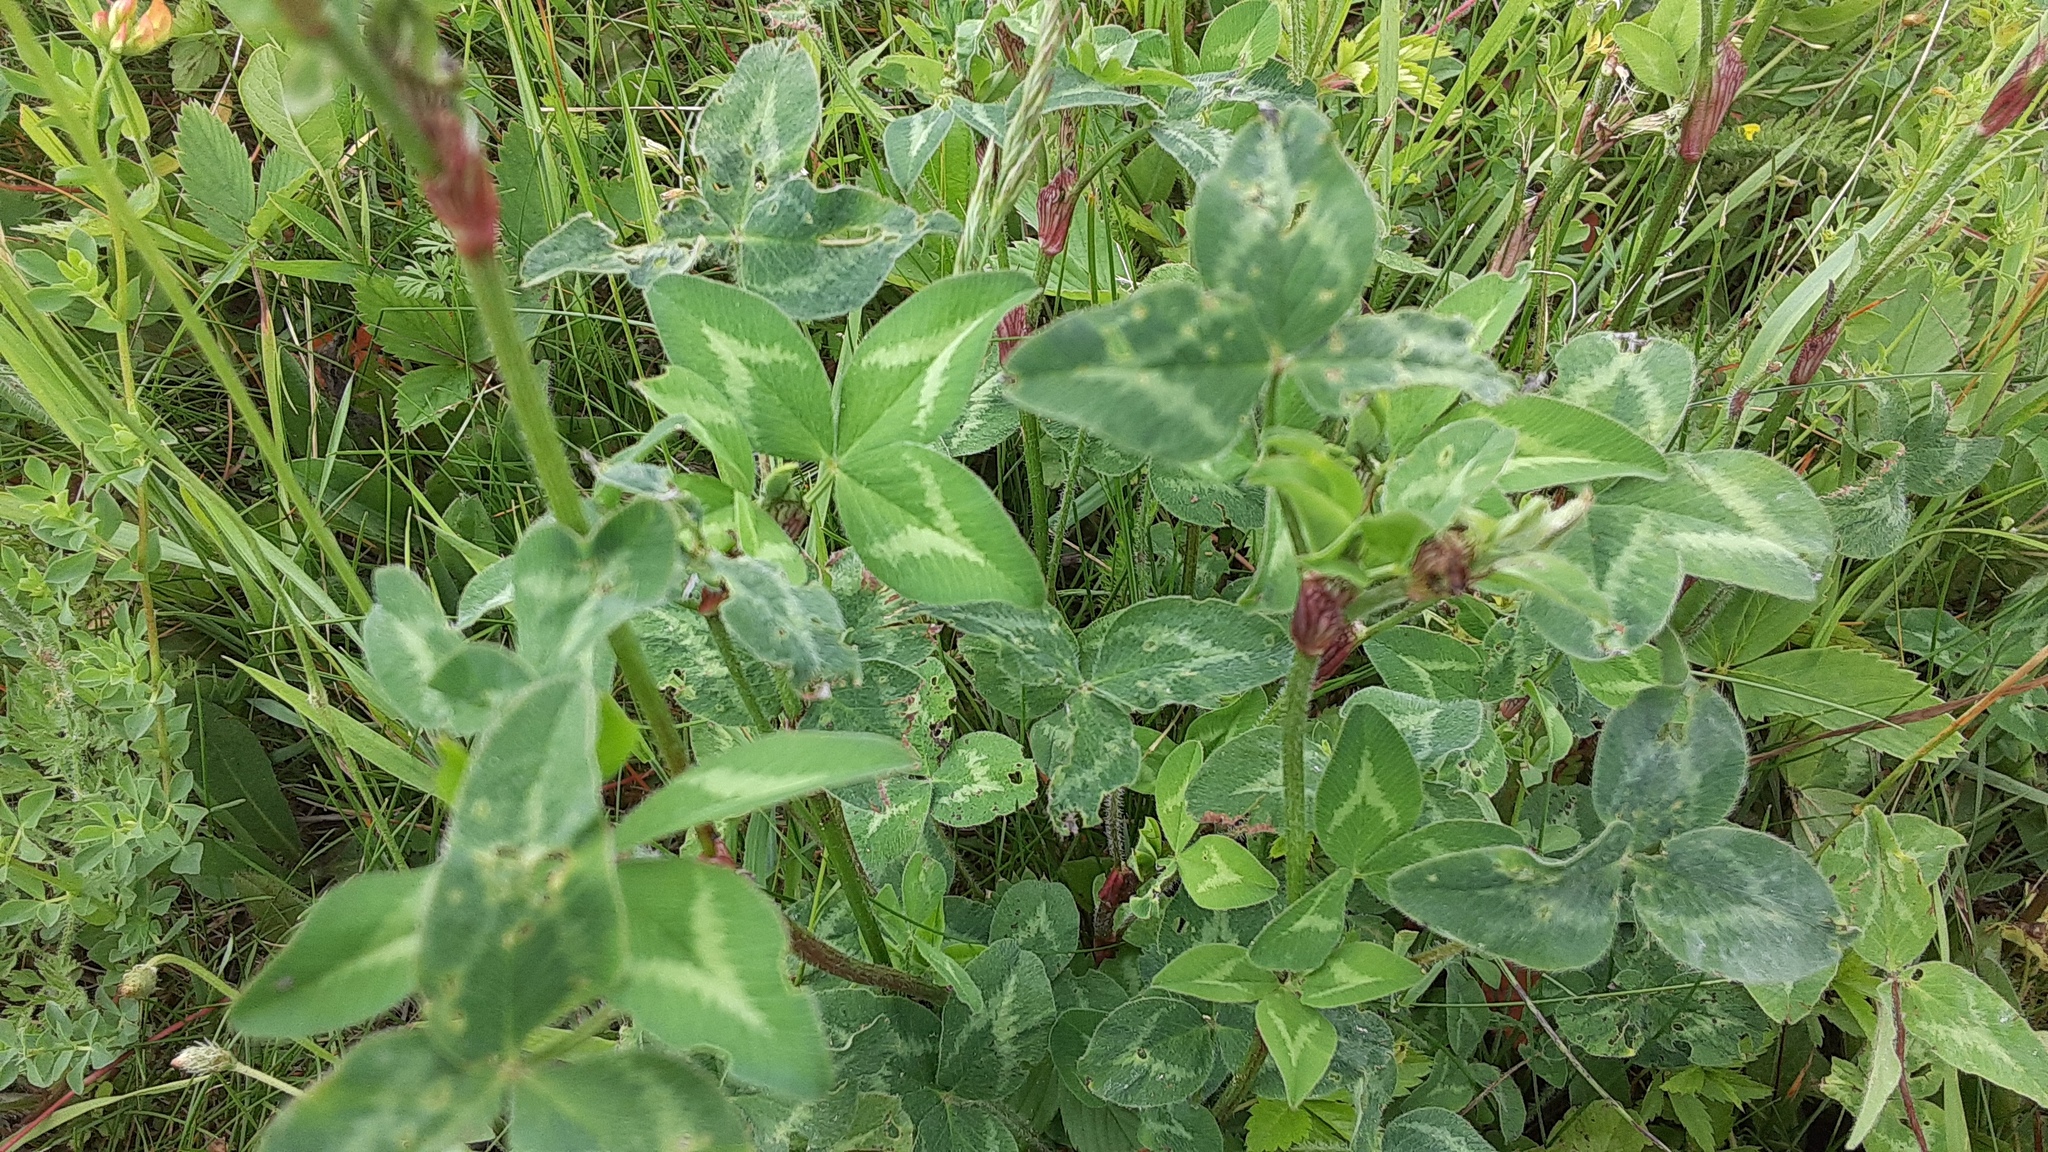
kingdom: Plantae
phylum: Tracheophyta
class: Magnoliopsida
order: Fabales
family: Fabaceae
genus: Trifolium
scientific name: Trifolium pratense
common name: Red clover
